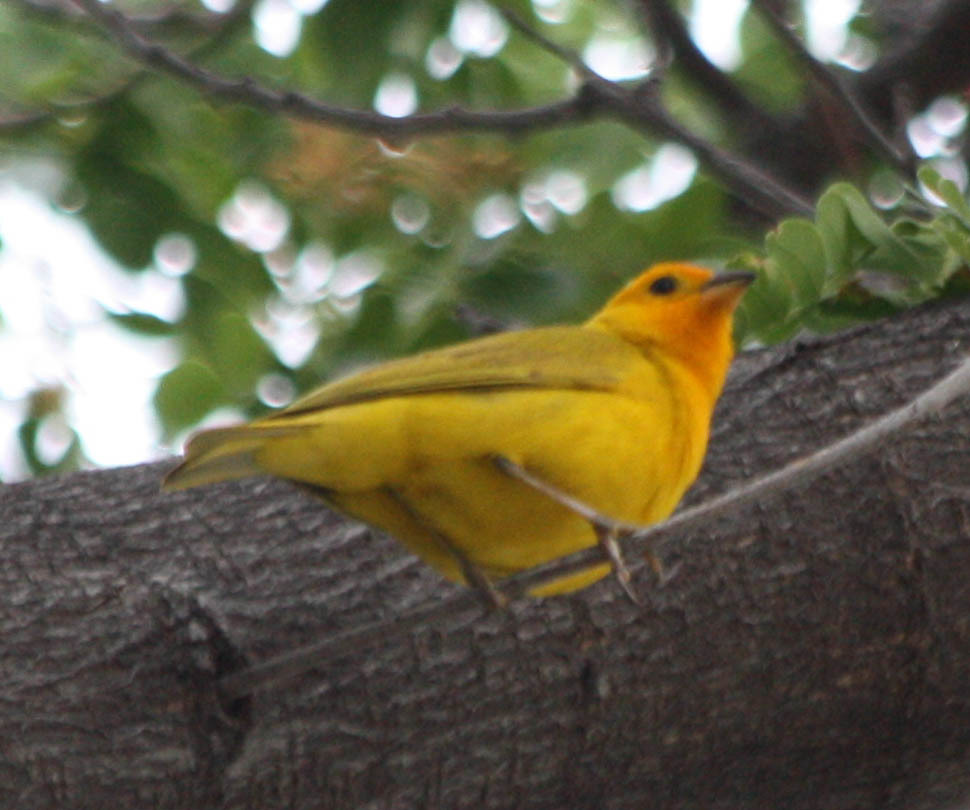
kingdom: Animalia
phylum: Chordata
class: Aves
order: Passeriformes
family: Thraupidae
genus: Sicalis
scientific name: Sicalis flaveola
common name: Saffron finch
